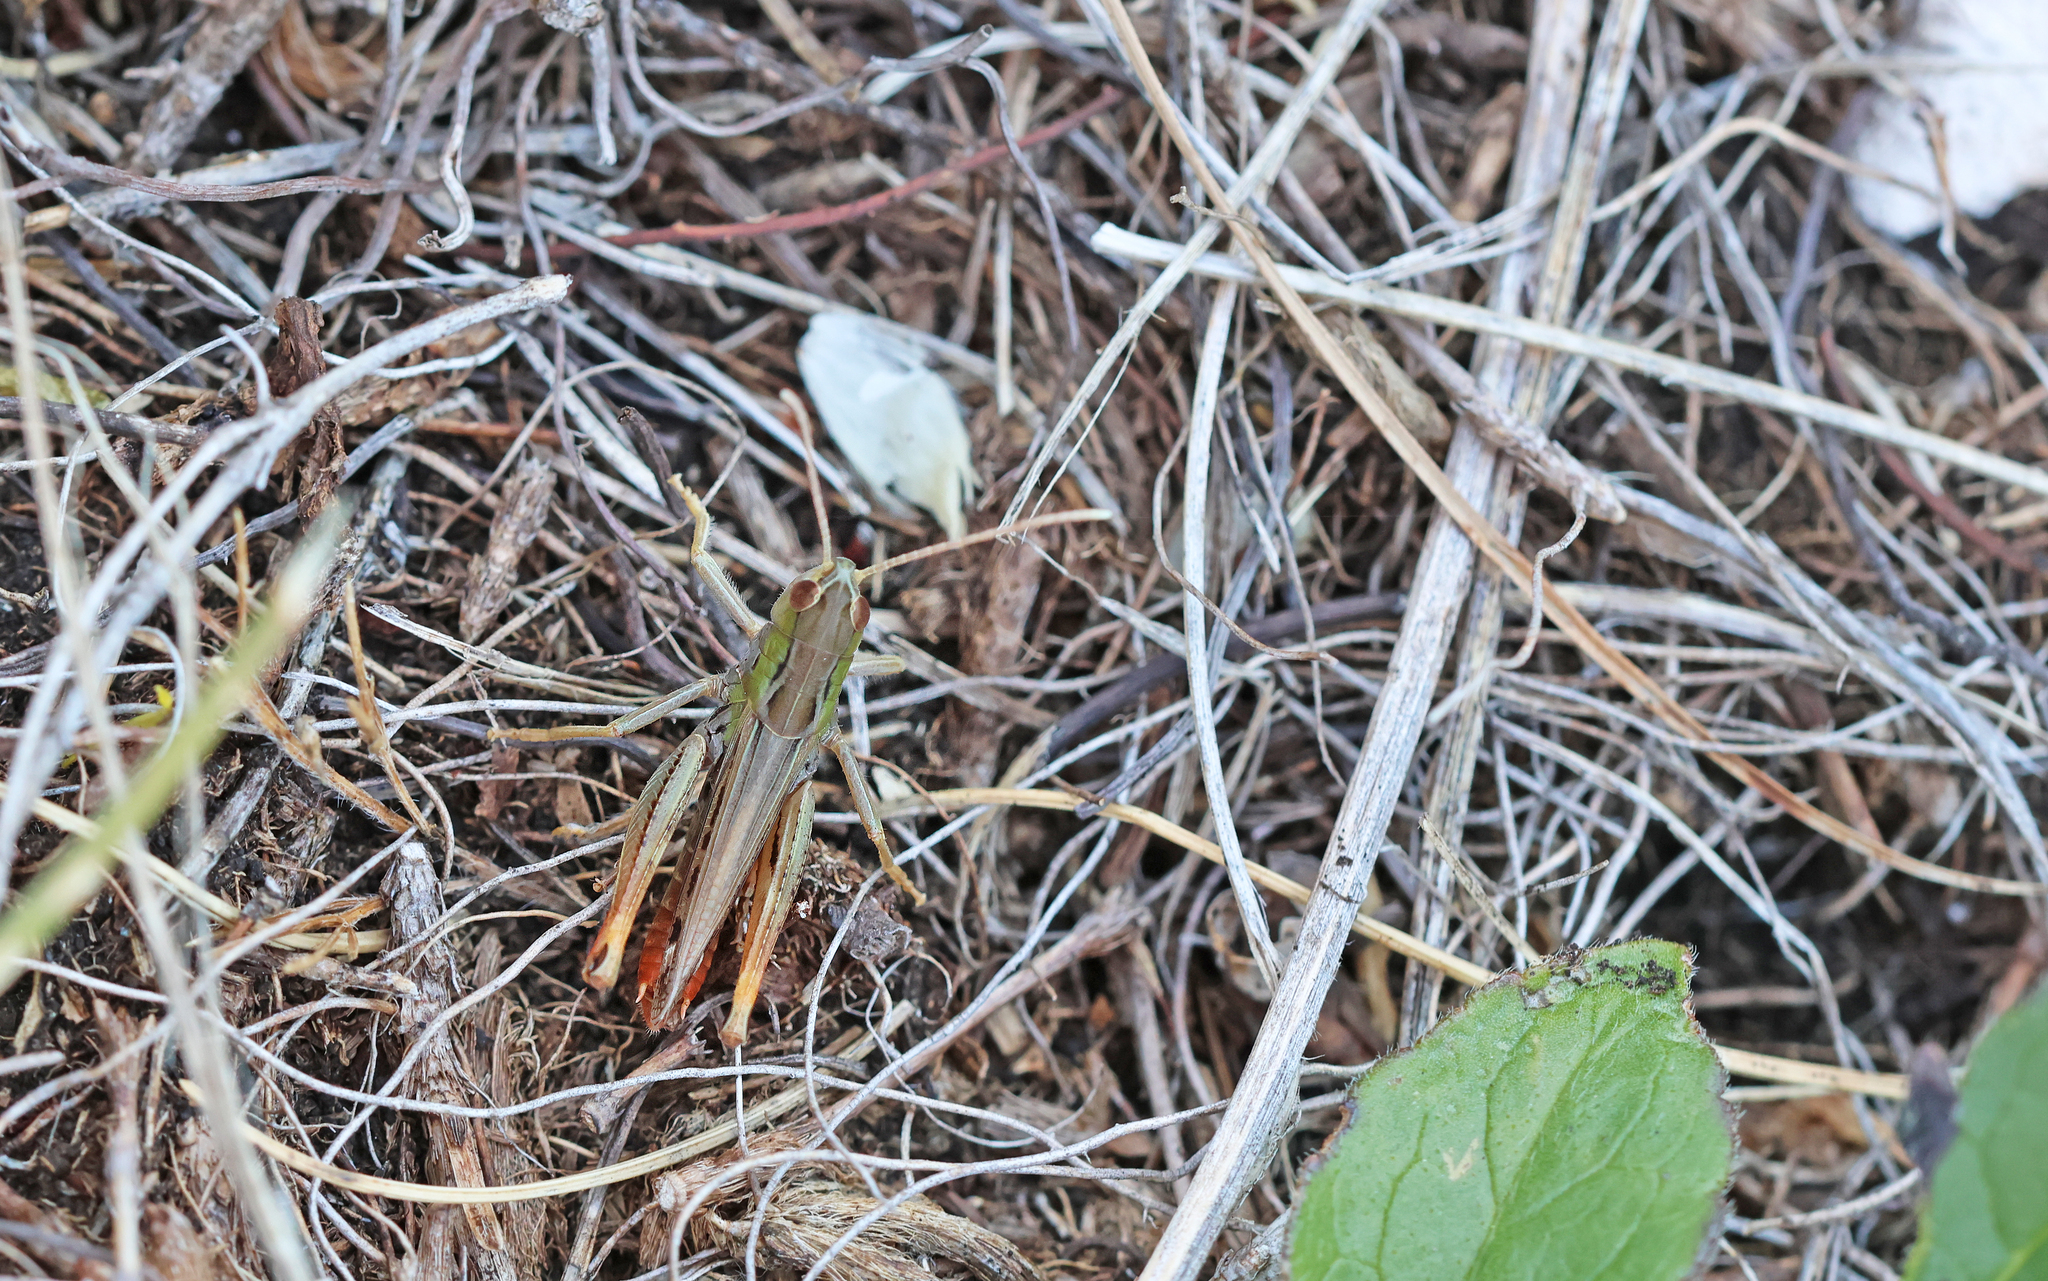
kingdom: Animalia
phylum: Arthropoda
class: Insecta
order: Orthoptera
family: Acrididae
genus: Stenobothrus
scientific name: Stenobothrus nigromaculatus
